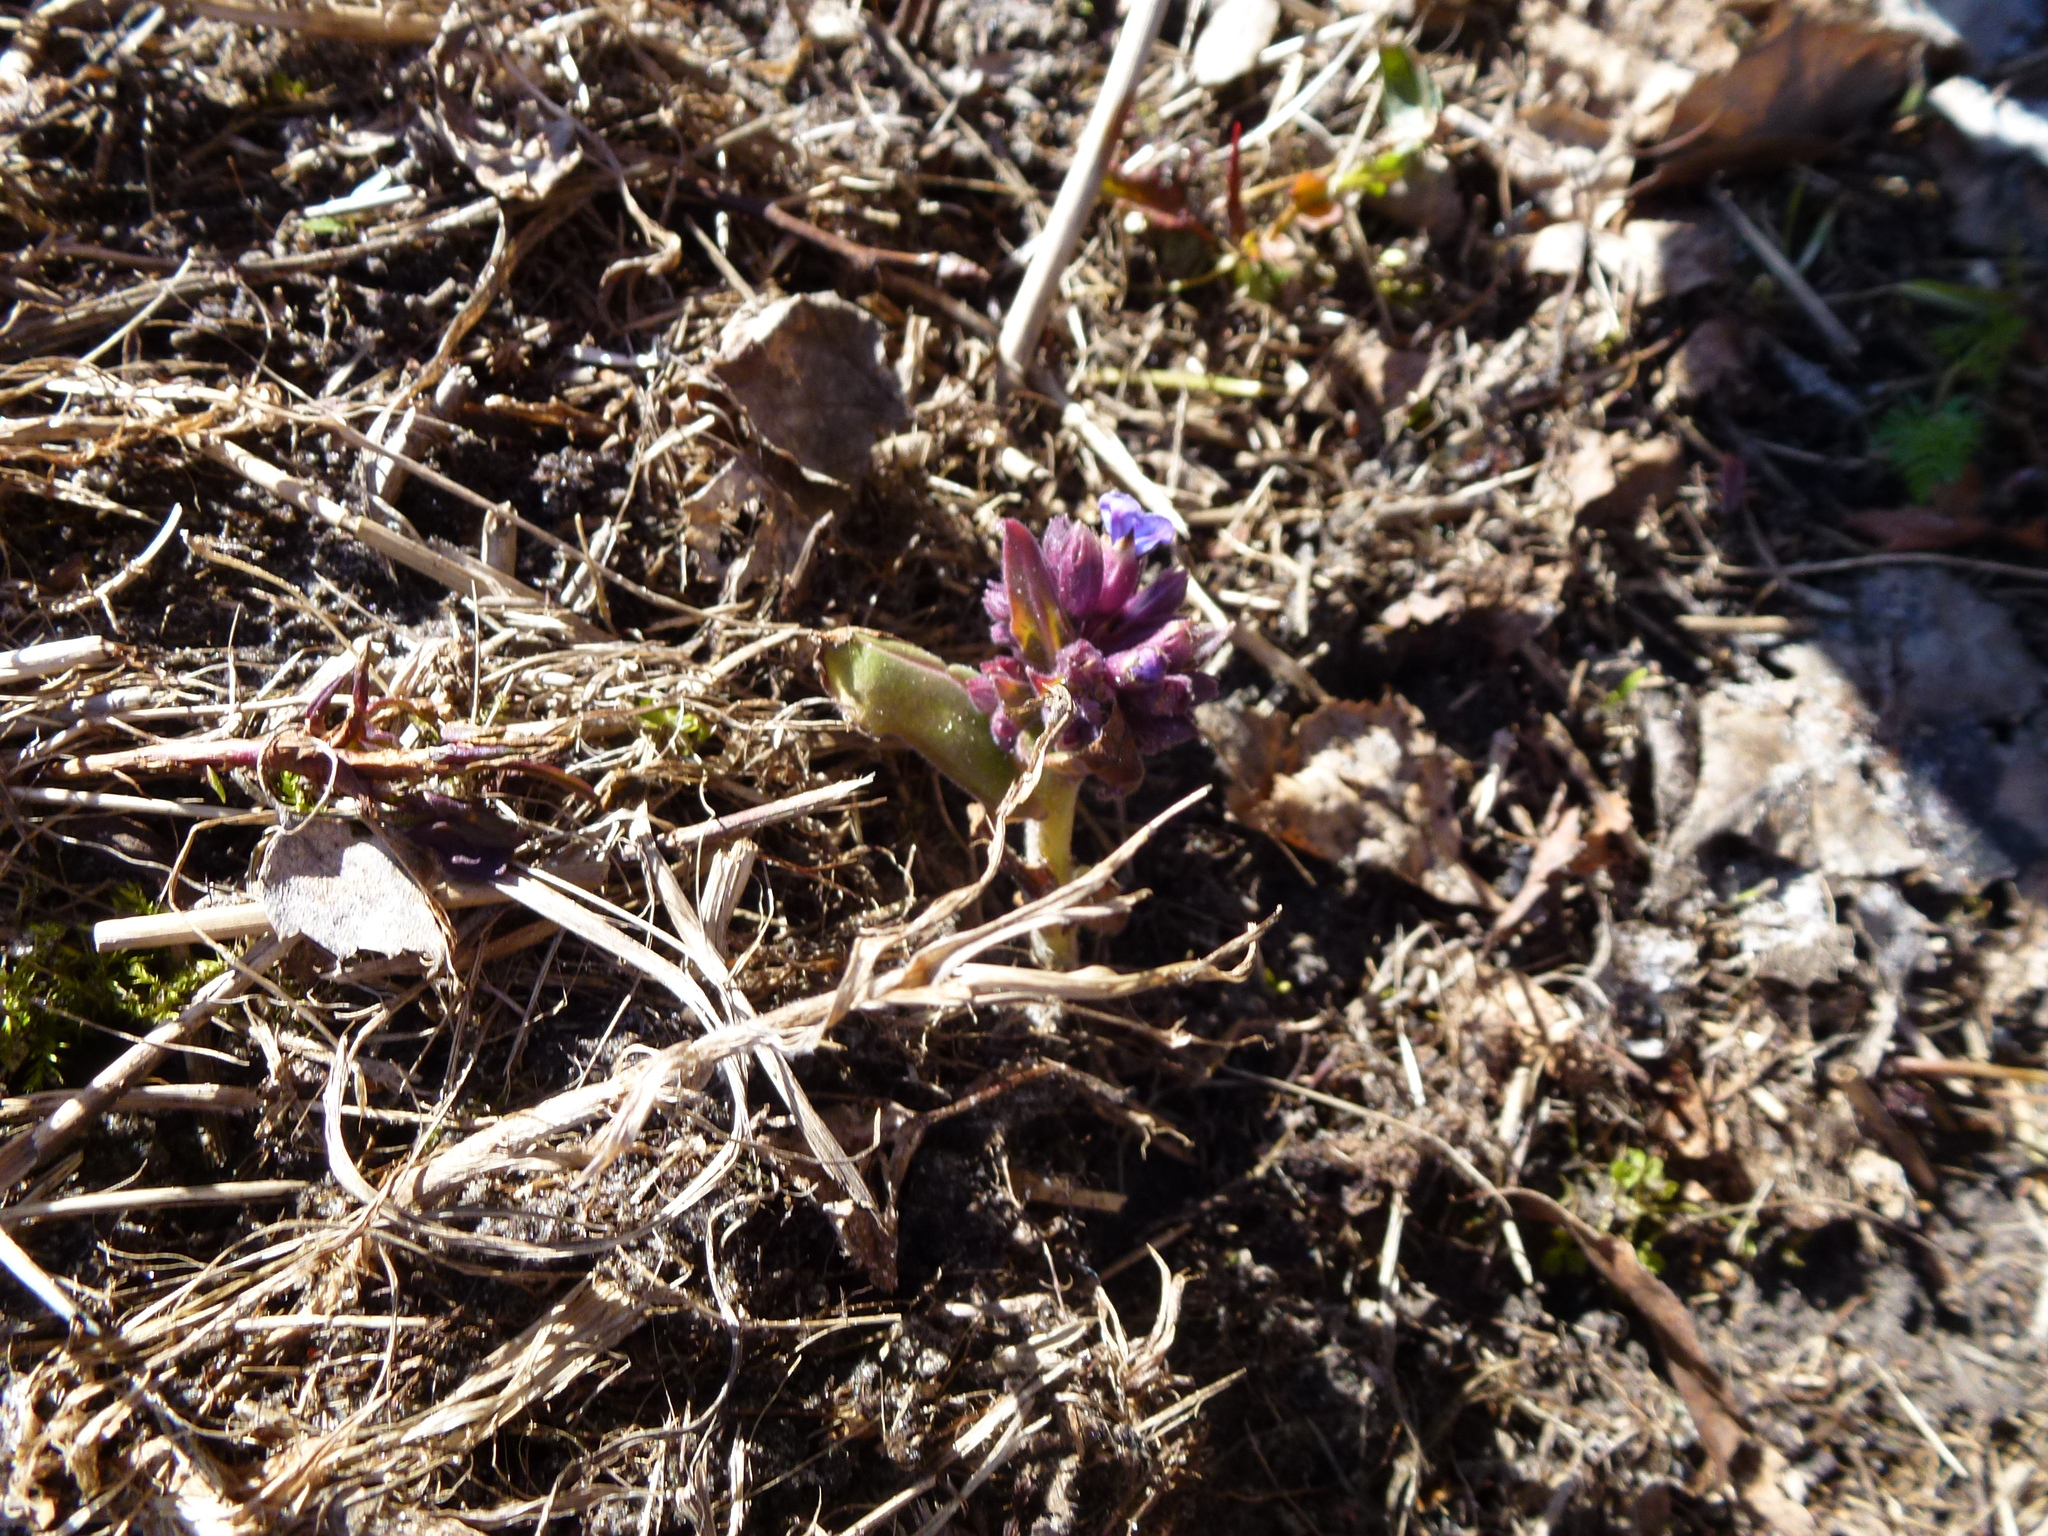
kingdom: Plantae
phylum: Tracheophyta
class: Magnoliopsida
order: Boraginales
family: Boraginaceae
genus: Pulmonaria
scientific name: Pulmonaria mollis
